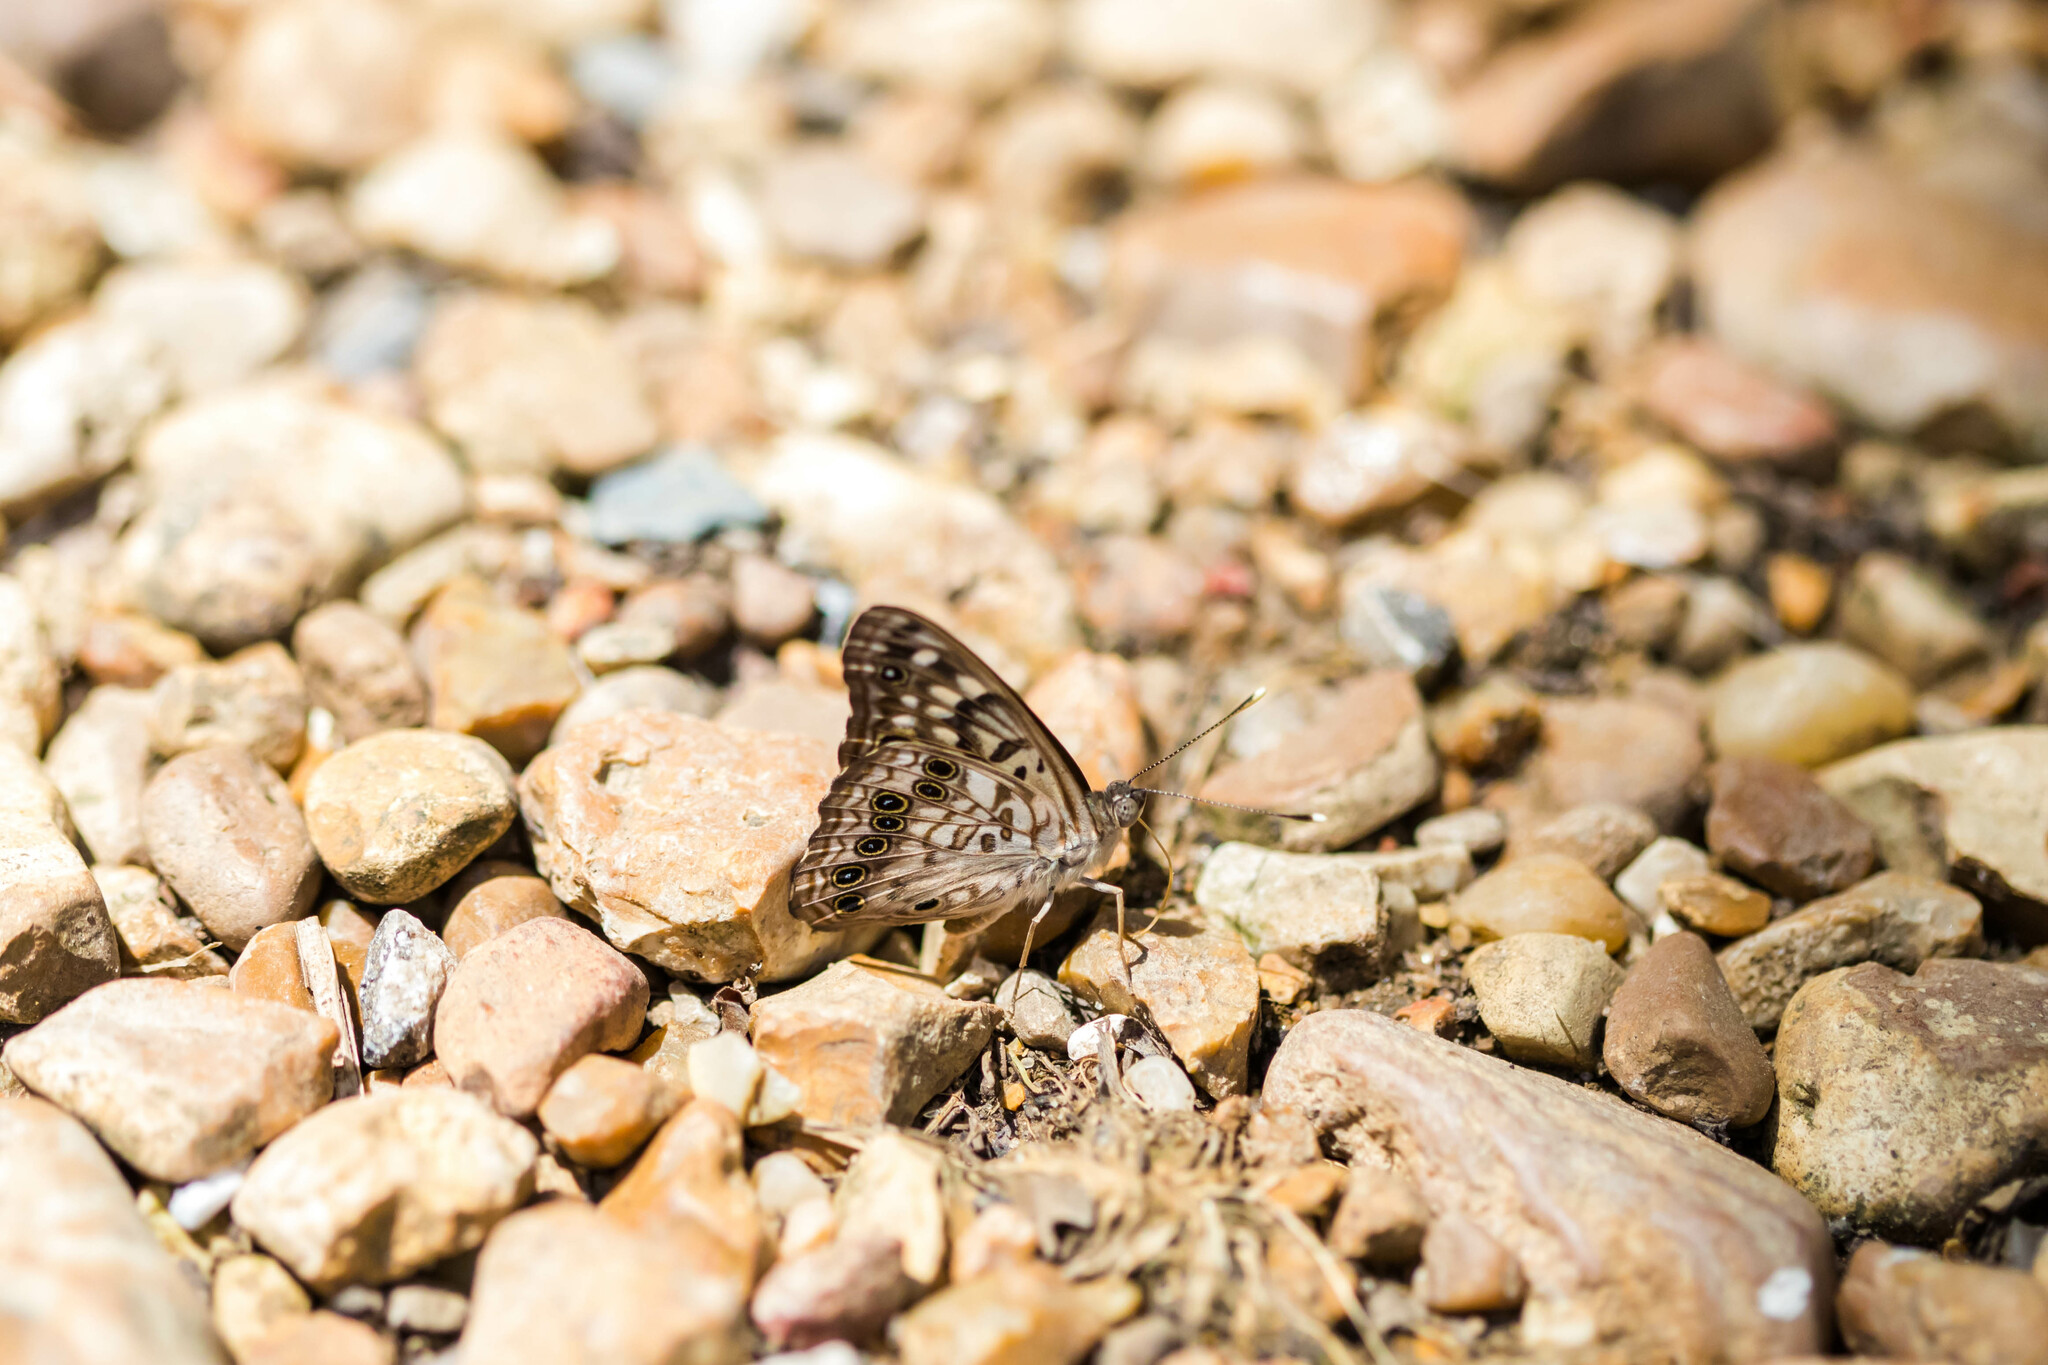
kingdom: Animalia
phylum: Arthropoda
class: Insecta
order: Lepidoptera
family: Nymphalidae
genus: Asterocampa
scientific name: Asterocampa celtis
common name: Hackberry emperor
